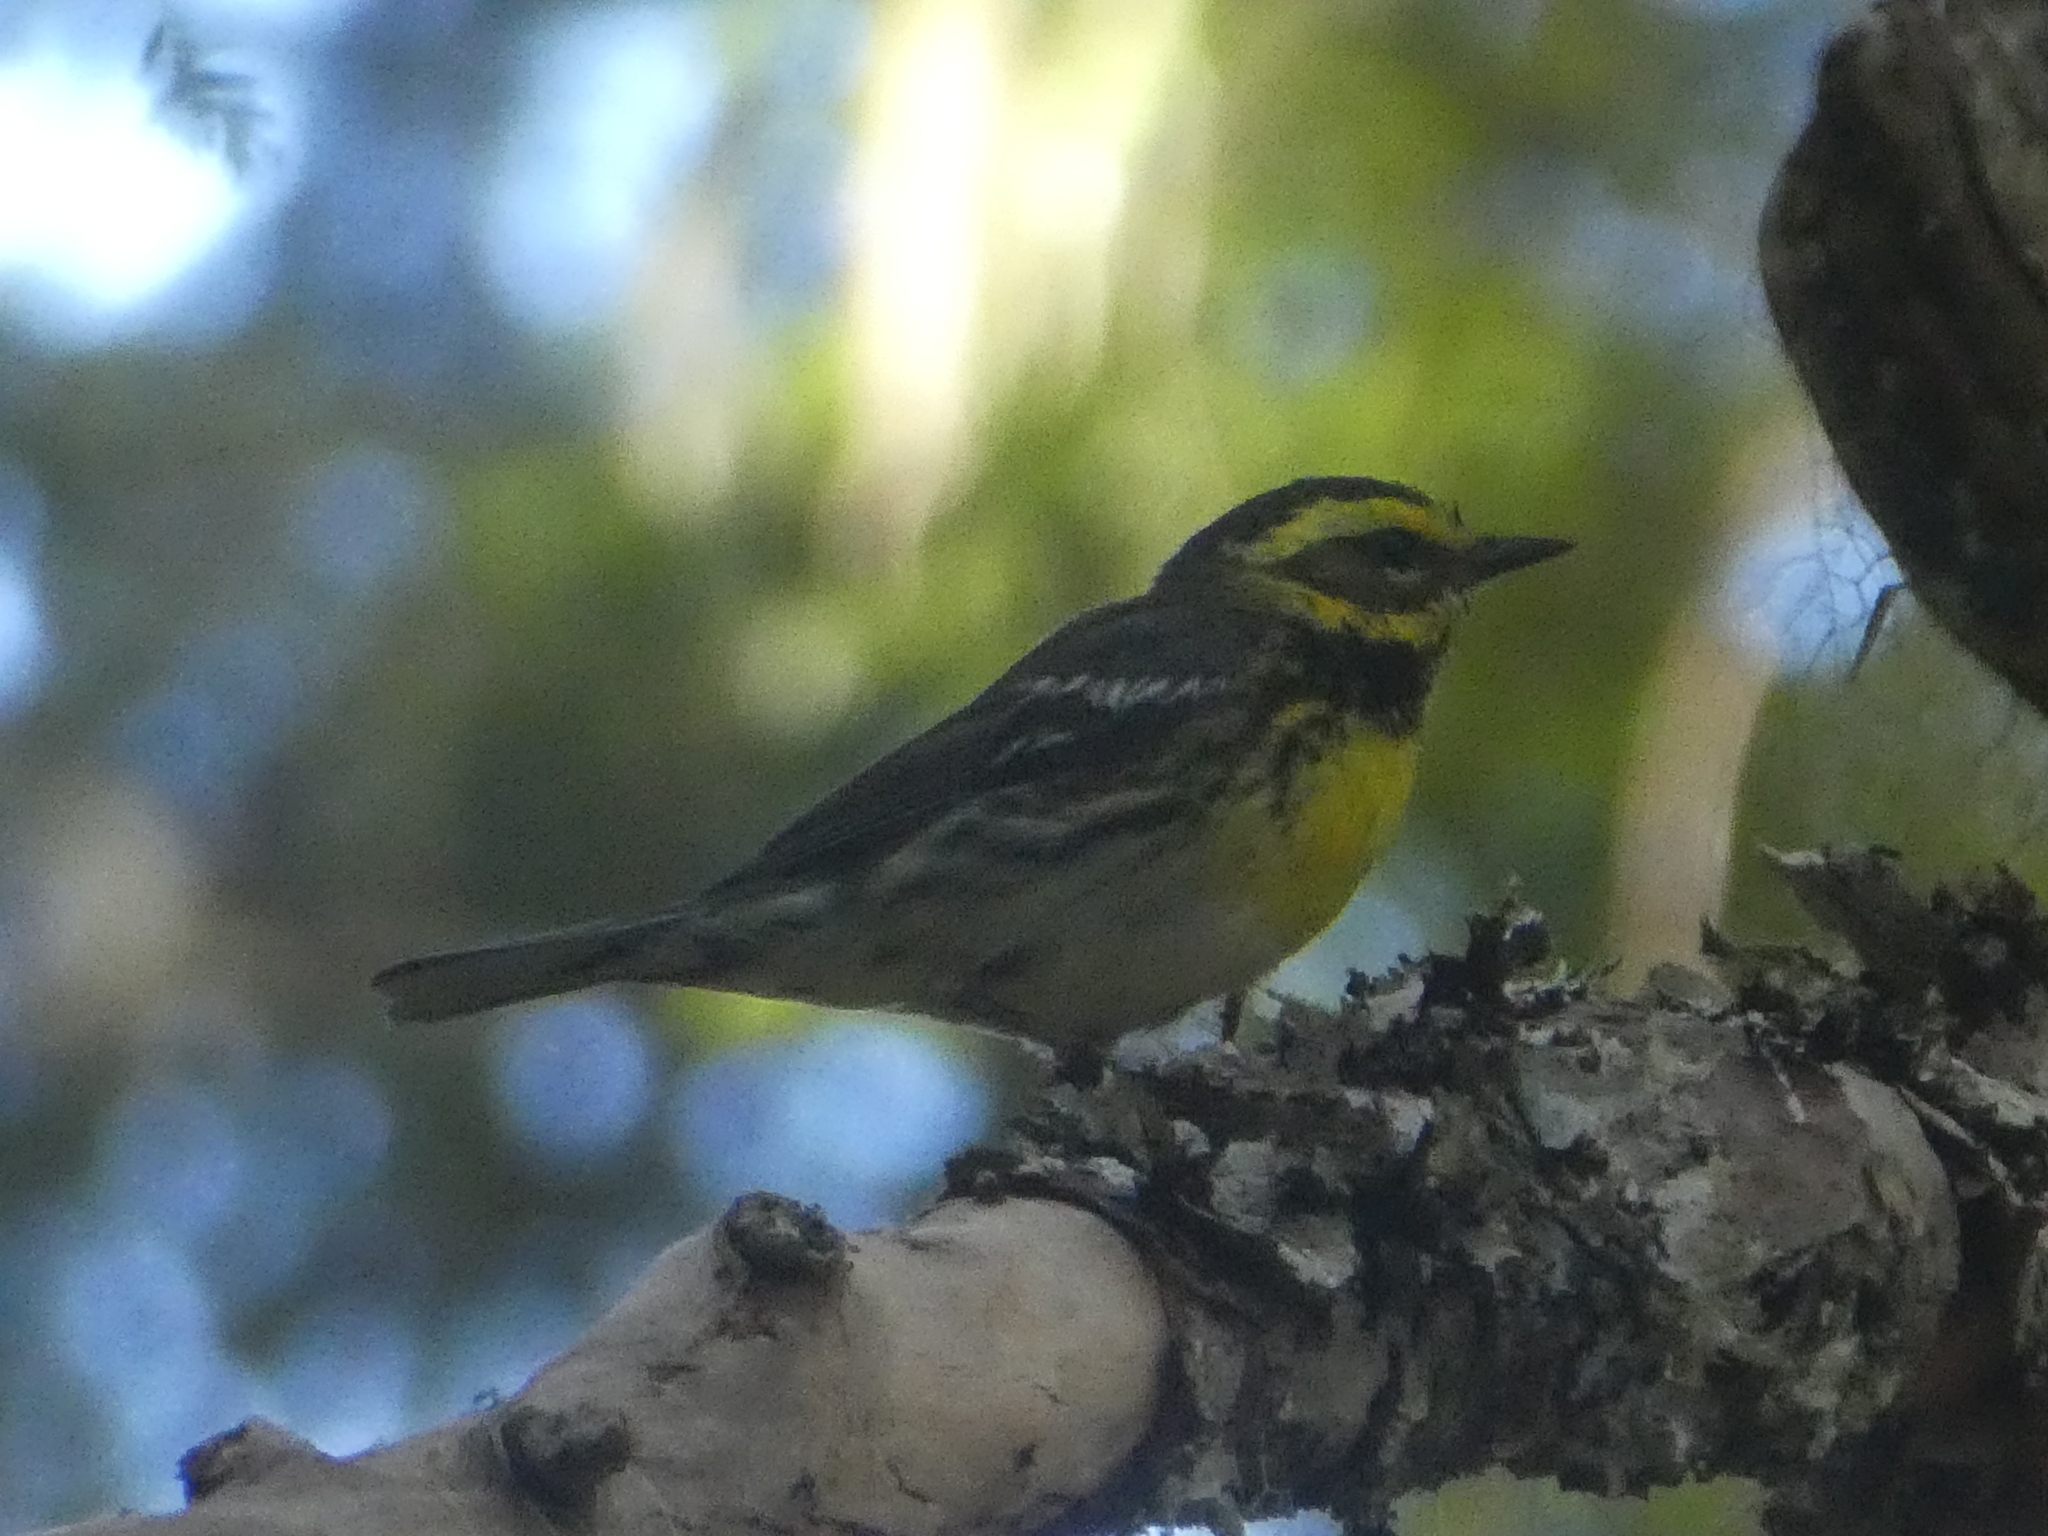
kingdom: Animalia
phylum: Chordata
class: Aves
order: Passeriformes
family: Parulidae
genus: Setophaga
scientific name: Setophaga townsendi
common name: Townsend's warbler
